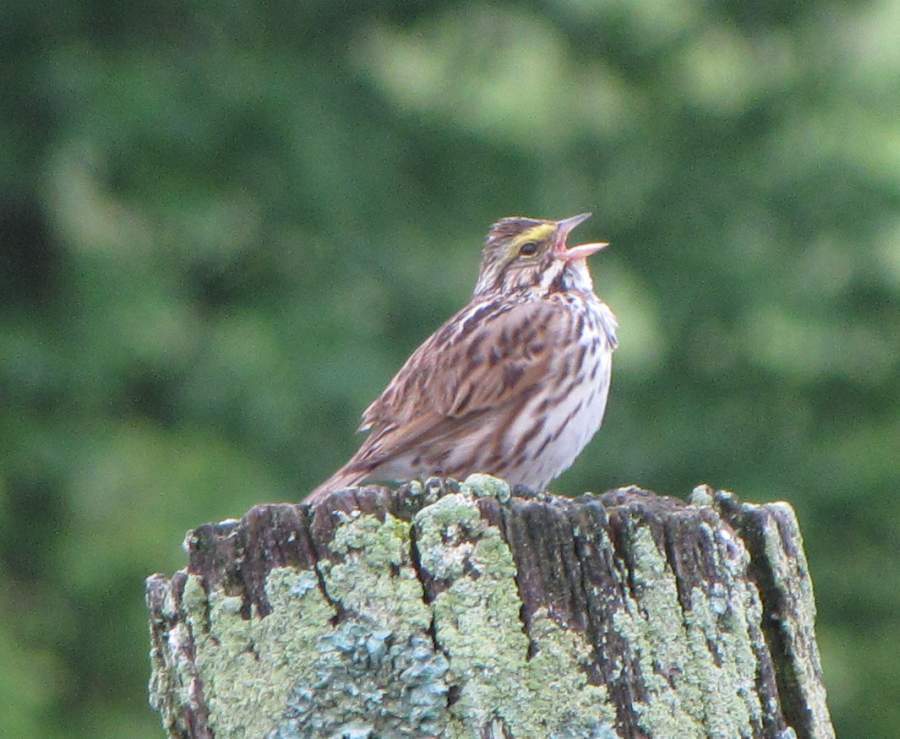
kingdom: Animalia
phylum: Chordata
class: Aves
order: Passeriformes
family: Passerellidae
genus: Passerculus
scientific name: Passerculus sandwichensis
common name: Savannah sparrow
